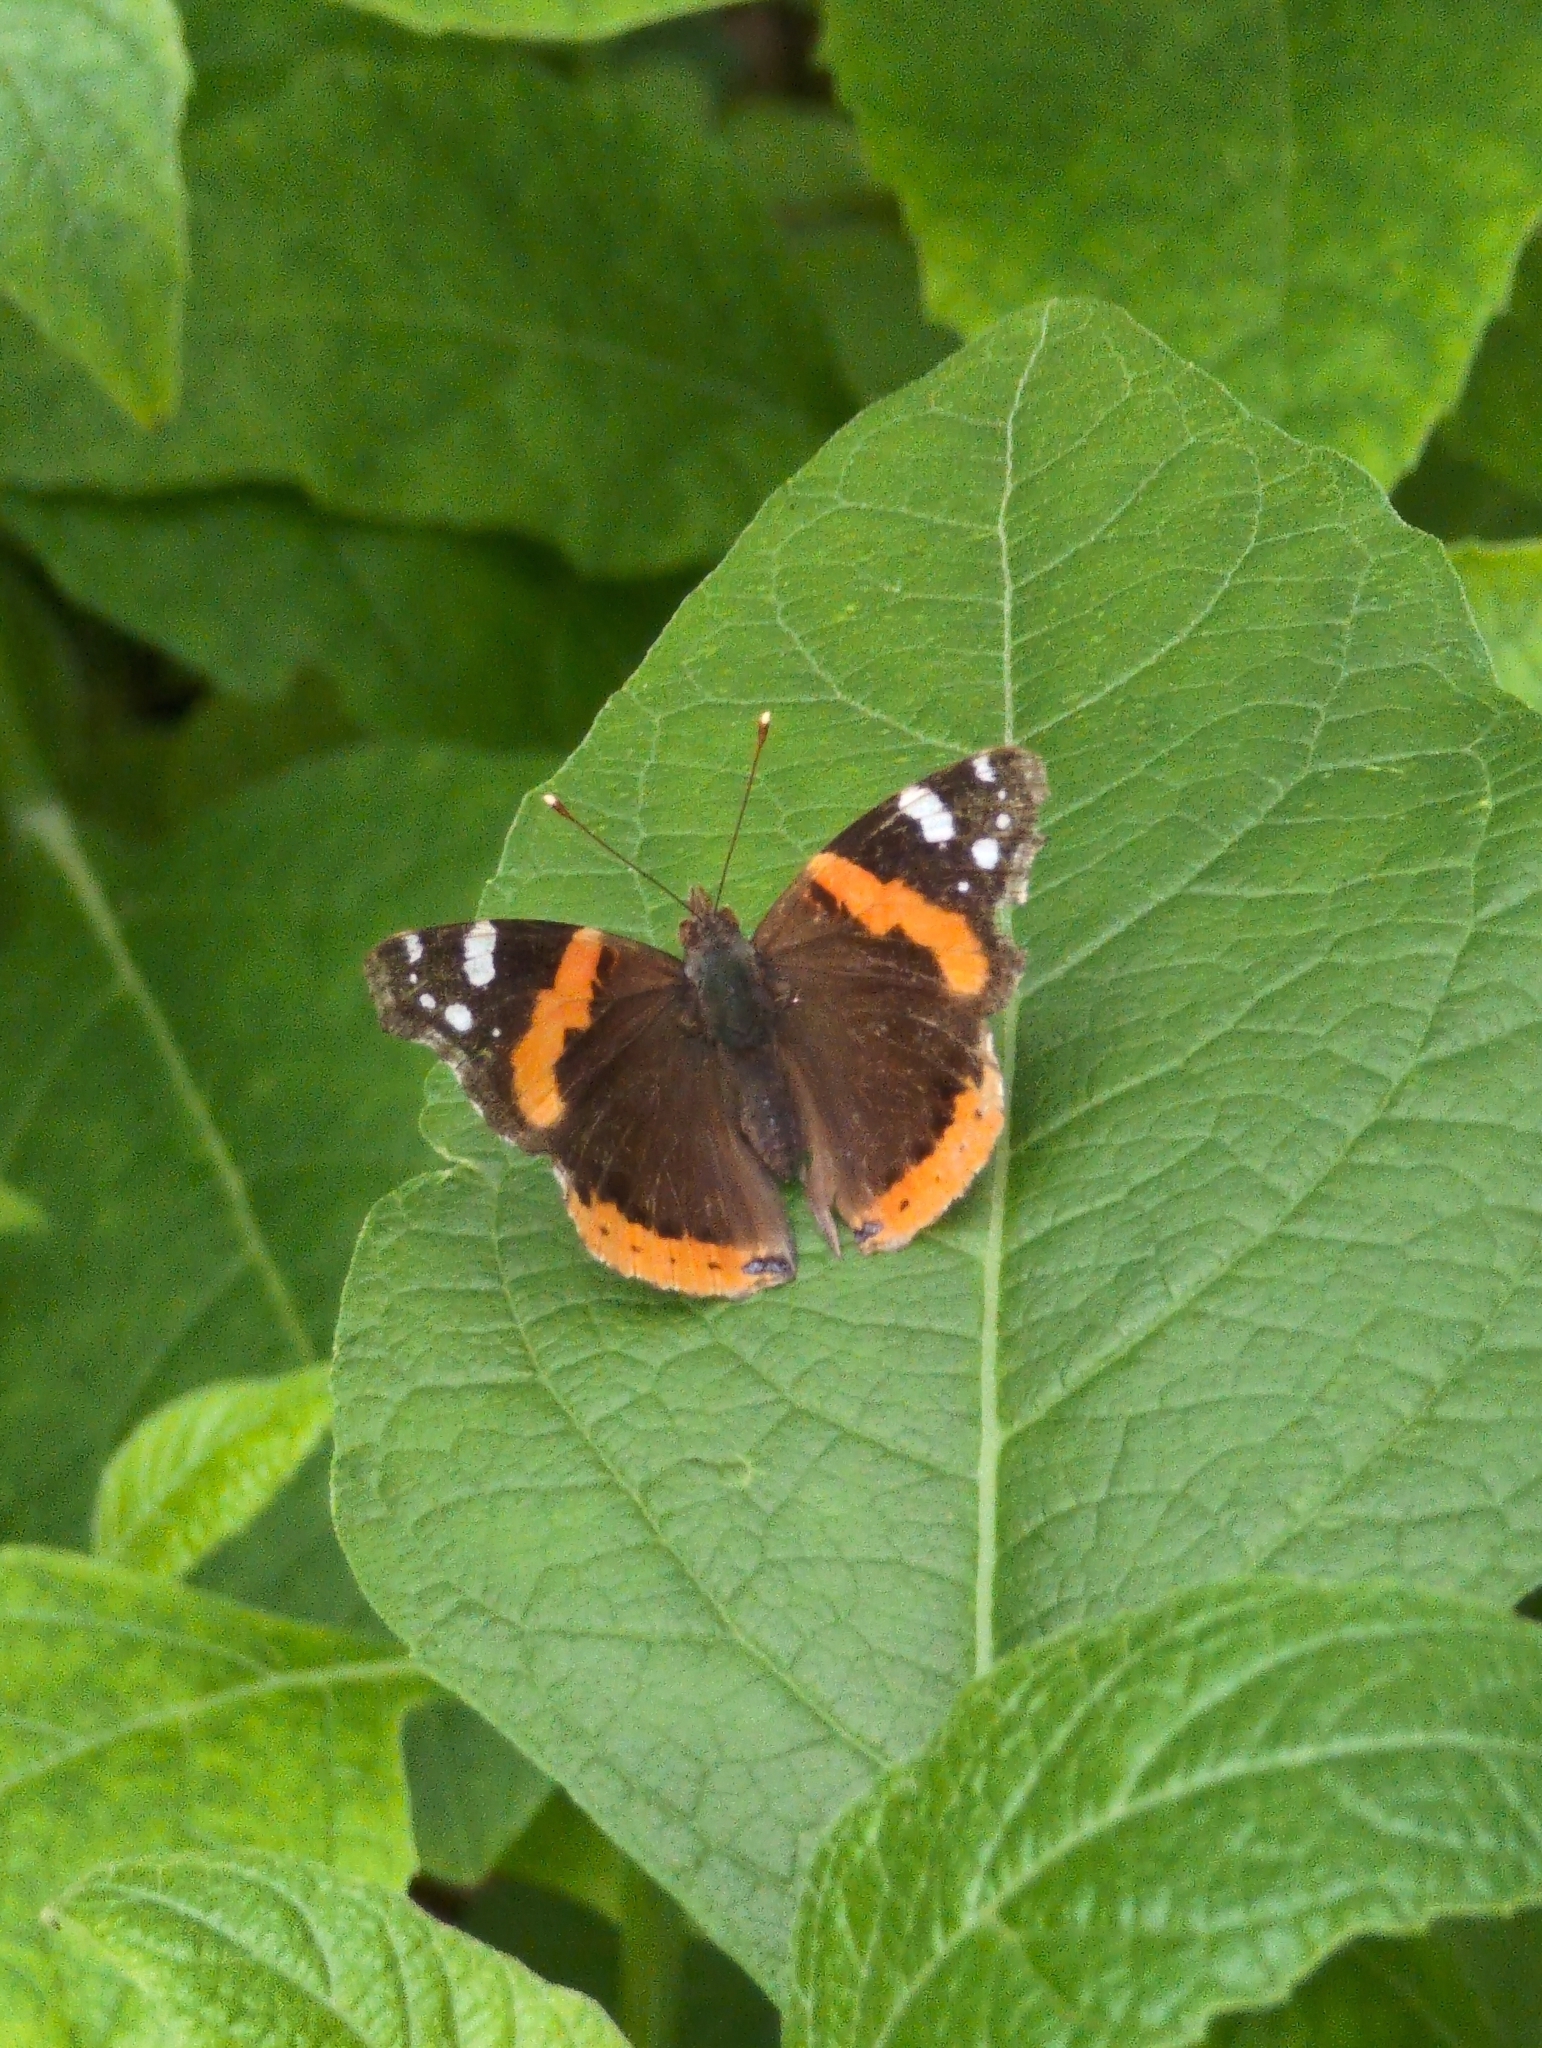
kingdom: Animalia
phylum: Arthropoda
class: Insecta
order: Lepidoptera
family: Nymphalidae
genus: Vanessa
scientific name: Vanessa atalanta
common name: Red admiral
